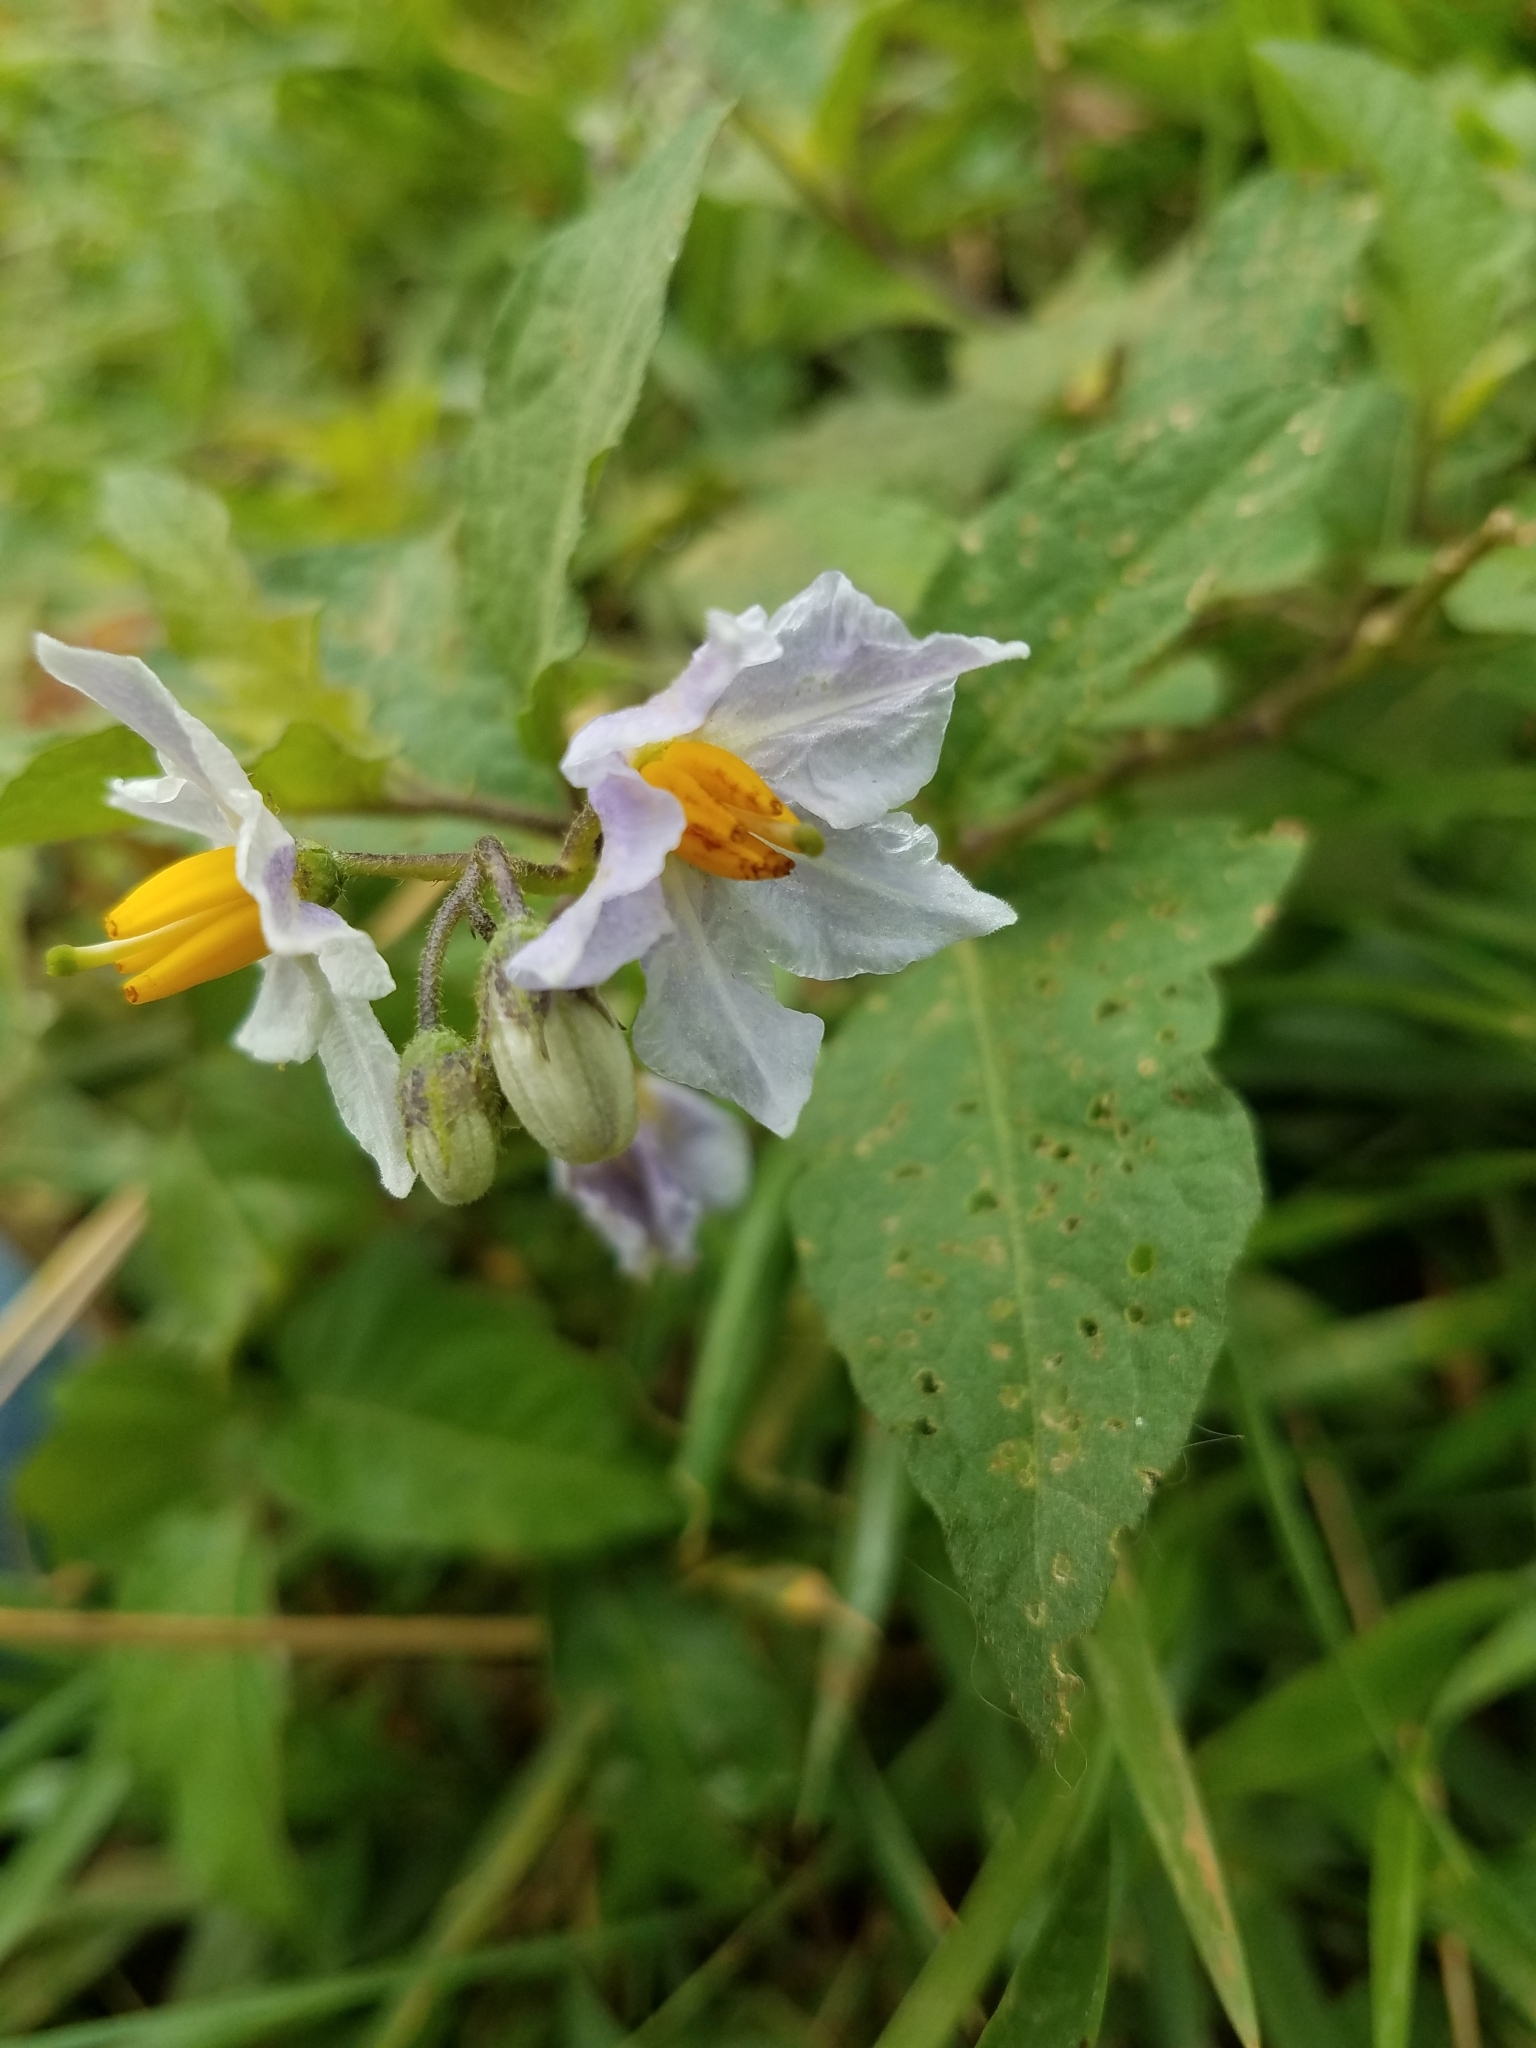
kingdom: Plantae
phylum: Tracheophyta
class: Magnoliopsida
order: Solanales
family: Solanaceae
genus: Solanum
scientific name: Solanum carolinense
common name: Horse-nettle
